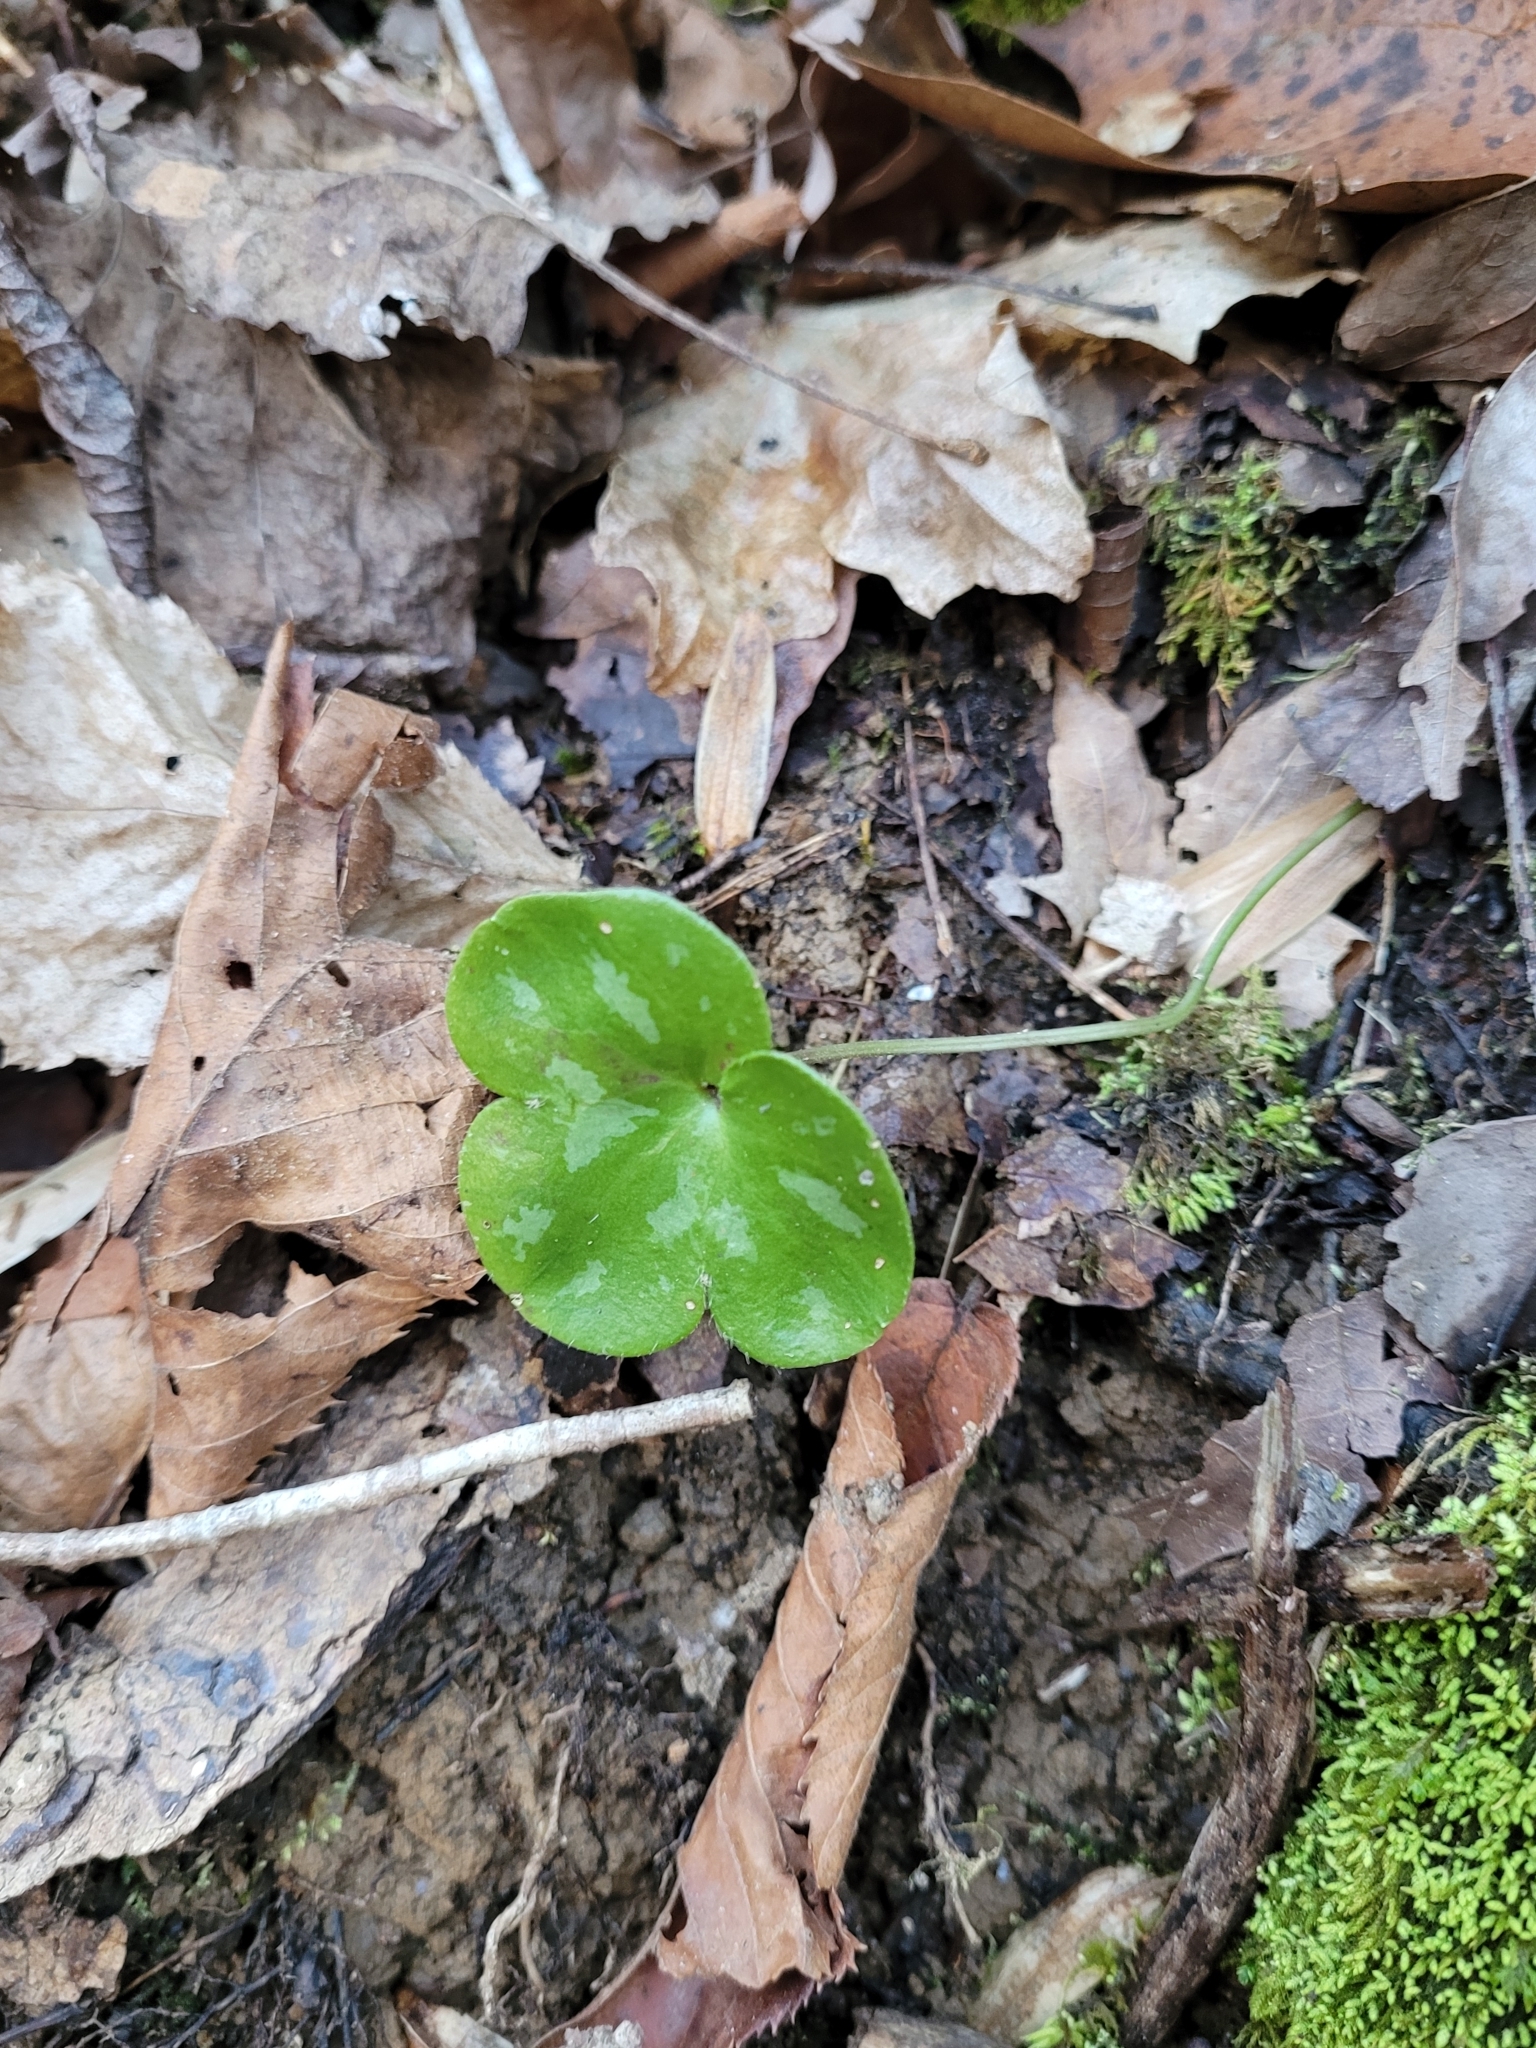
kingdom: Plantae
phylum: Tracheophyta
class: Magnoliopsida
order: Ranunculales
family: Ranunculaceae
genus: Hepatica
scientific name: Hepatica americana
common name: American hepatica
